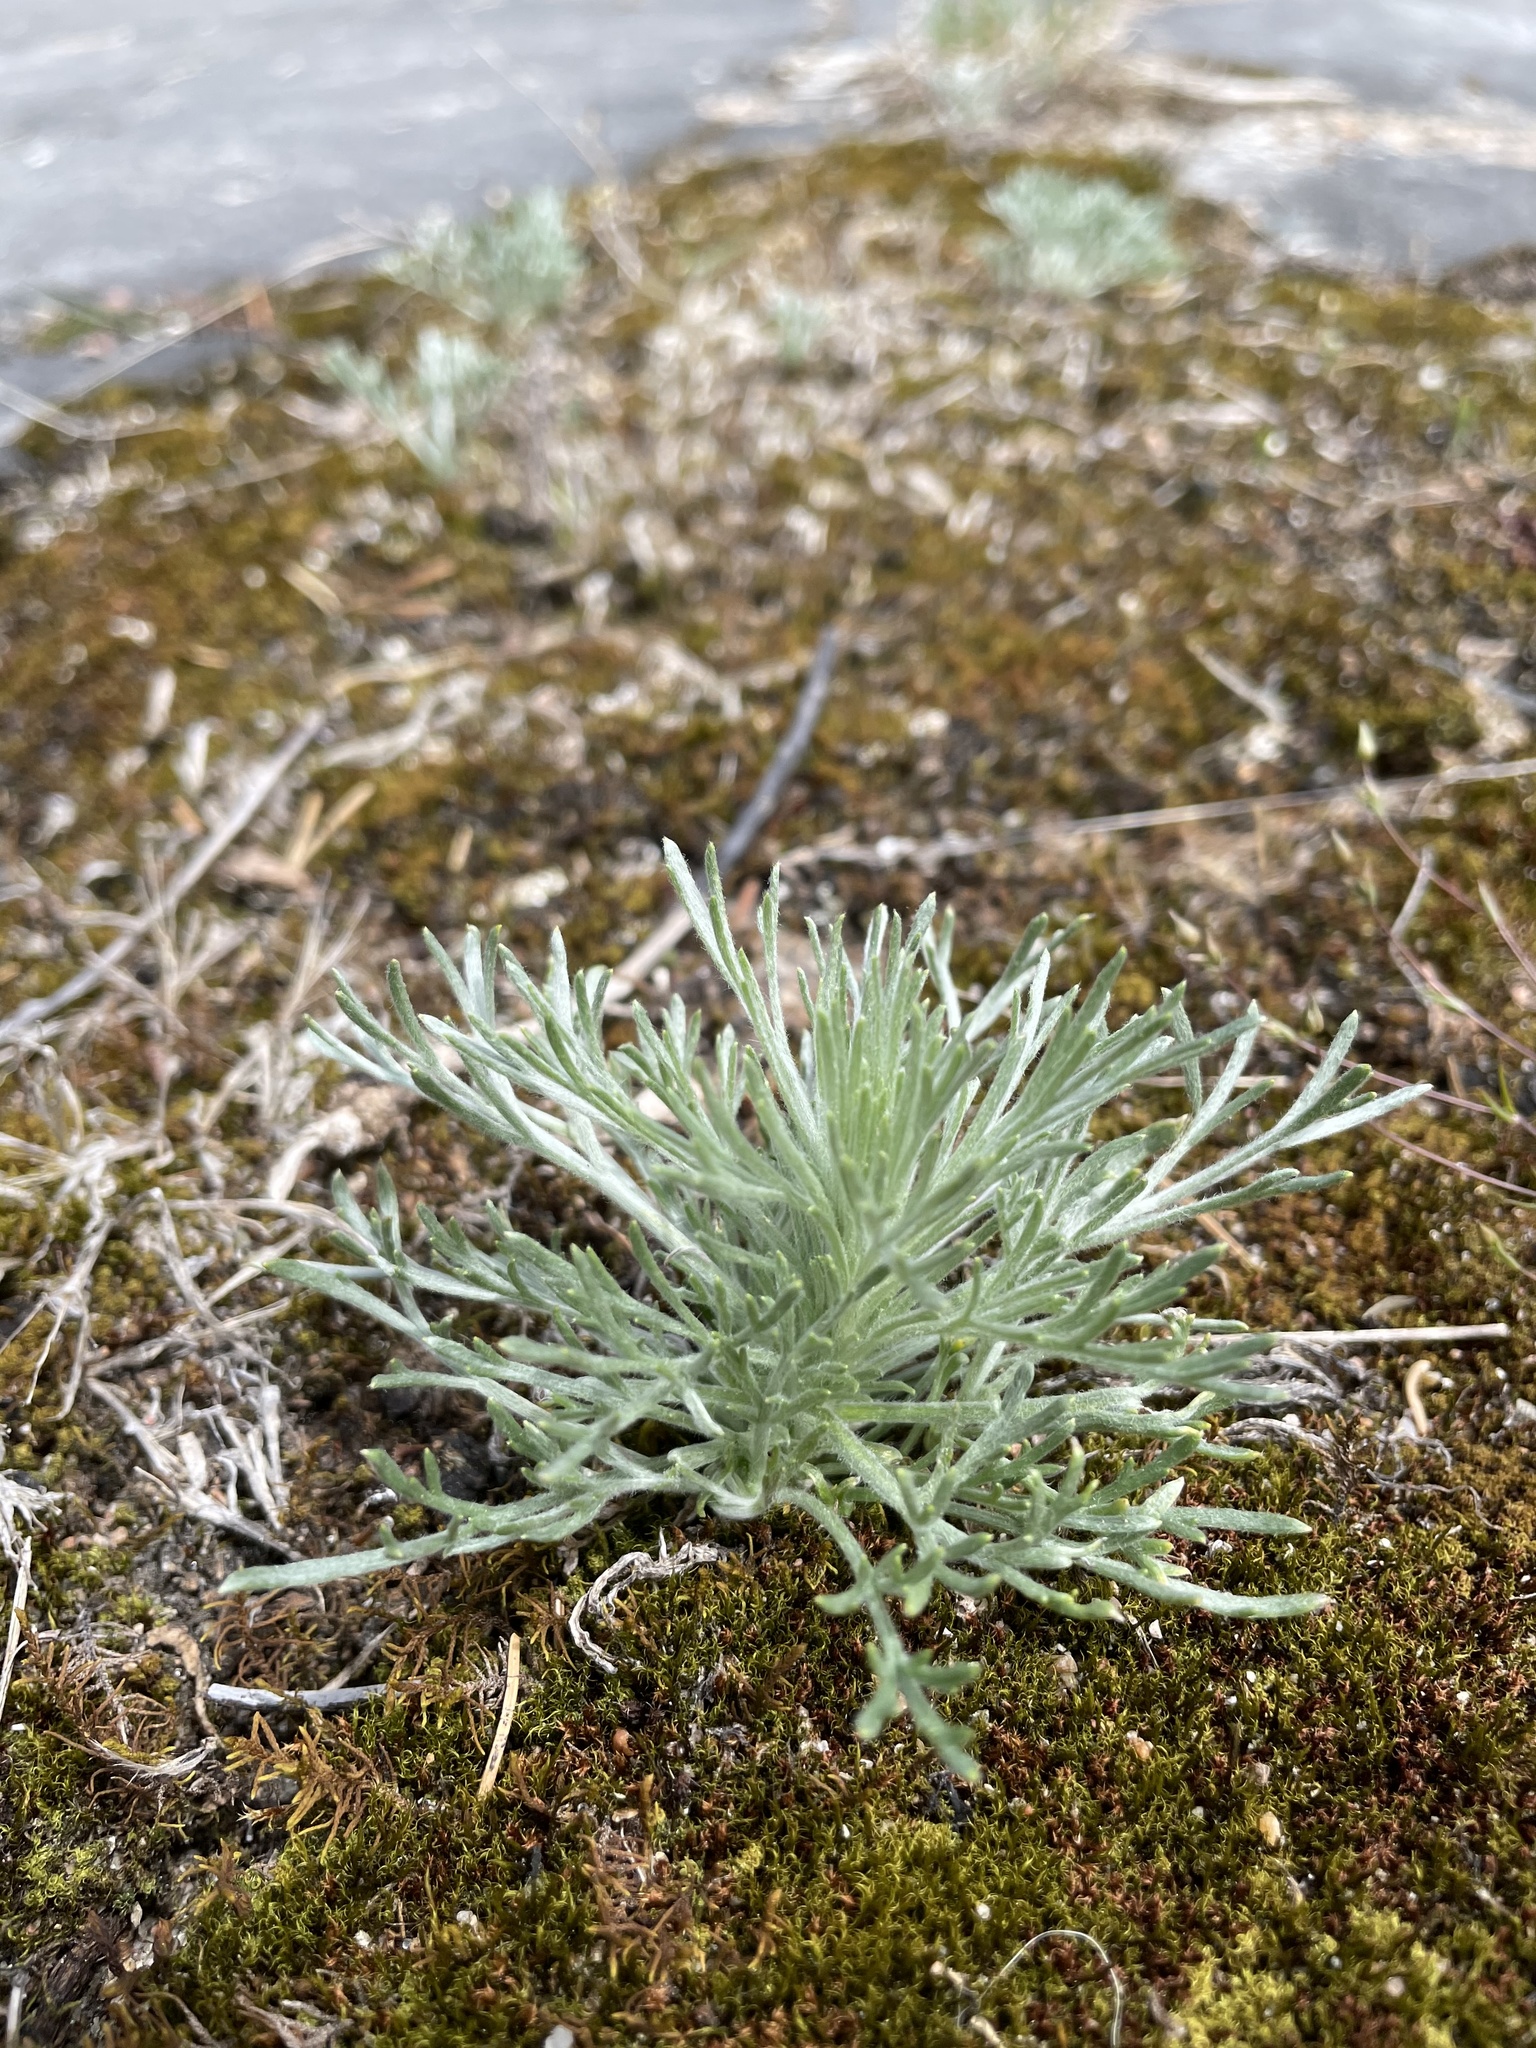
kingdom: Plantae
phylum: Tracheophyta
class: Magnoliopsida
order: Asterales
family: Asteraceae
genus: Artemisia
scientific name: Artemisia campestris
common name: Field wormwood
